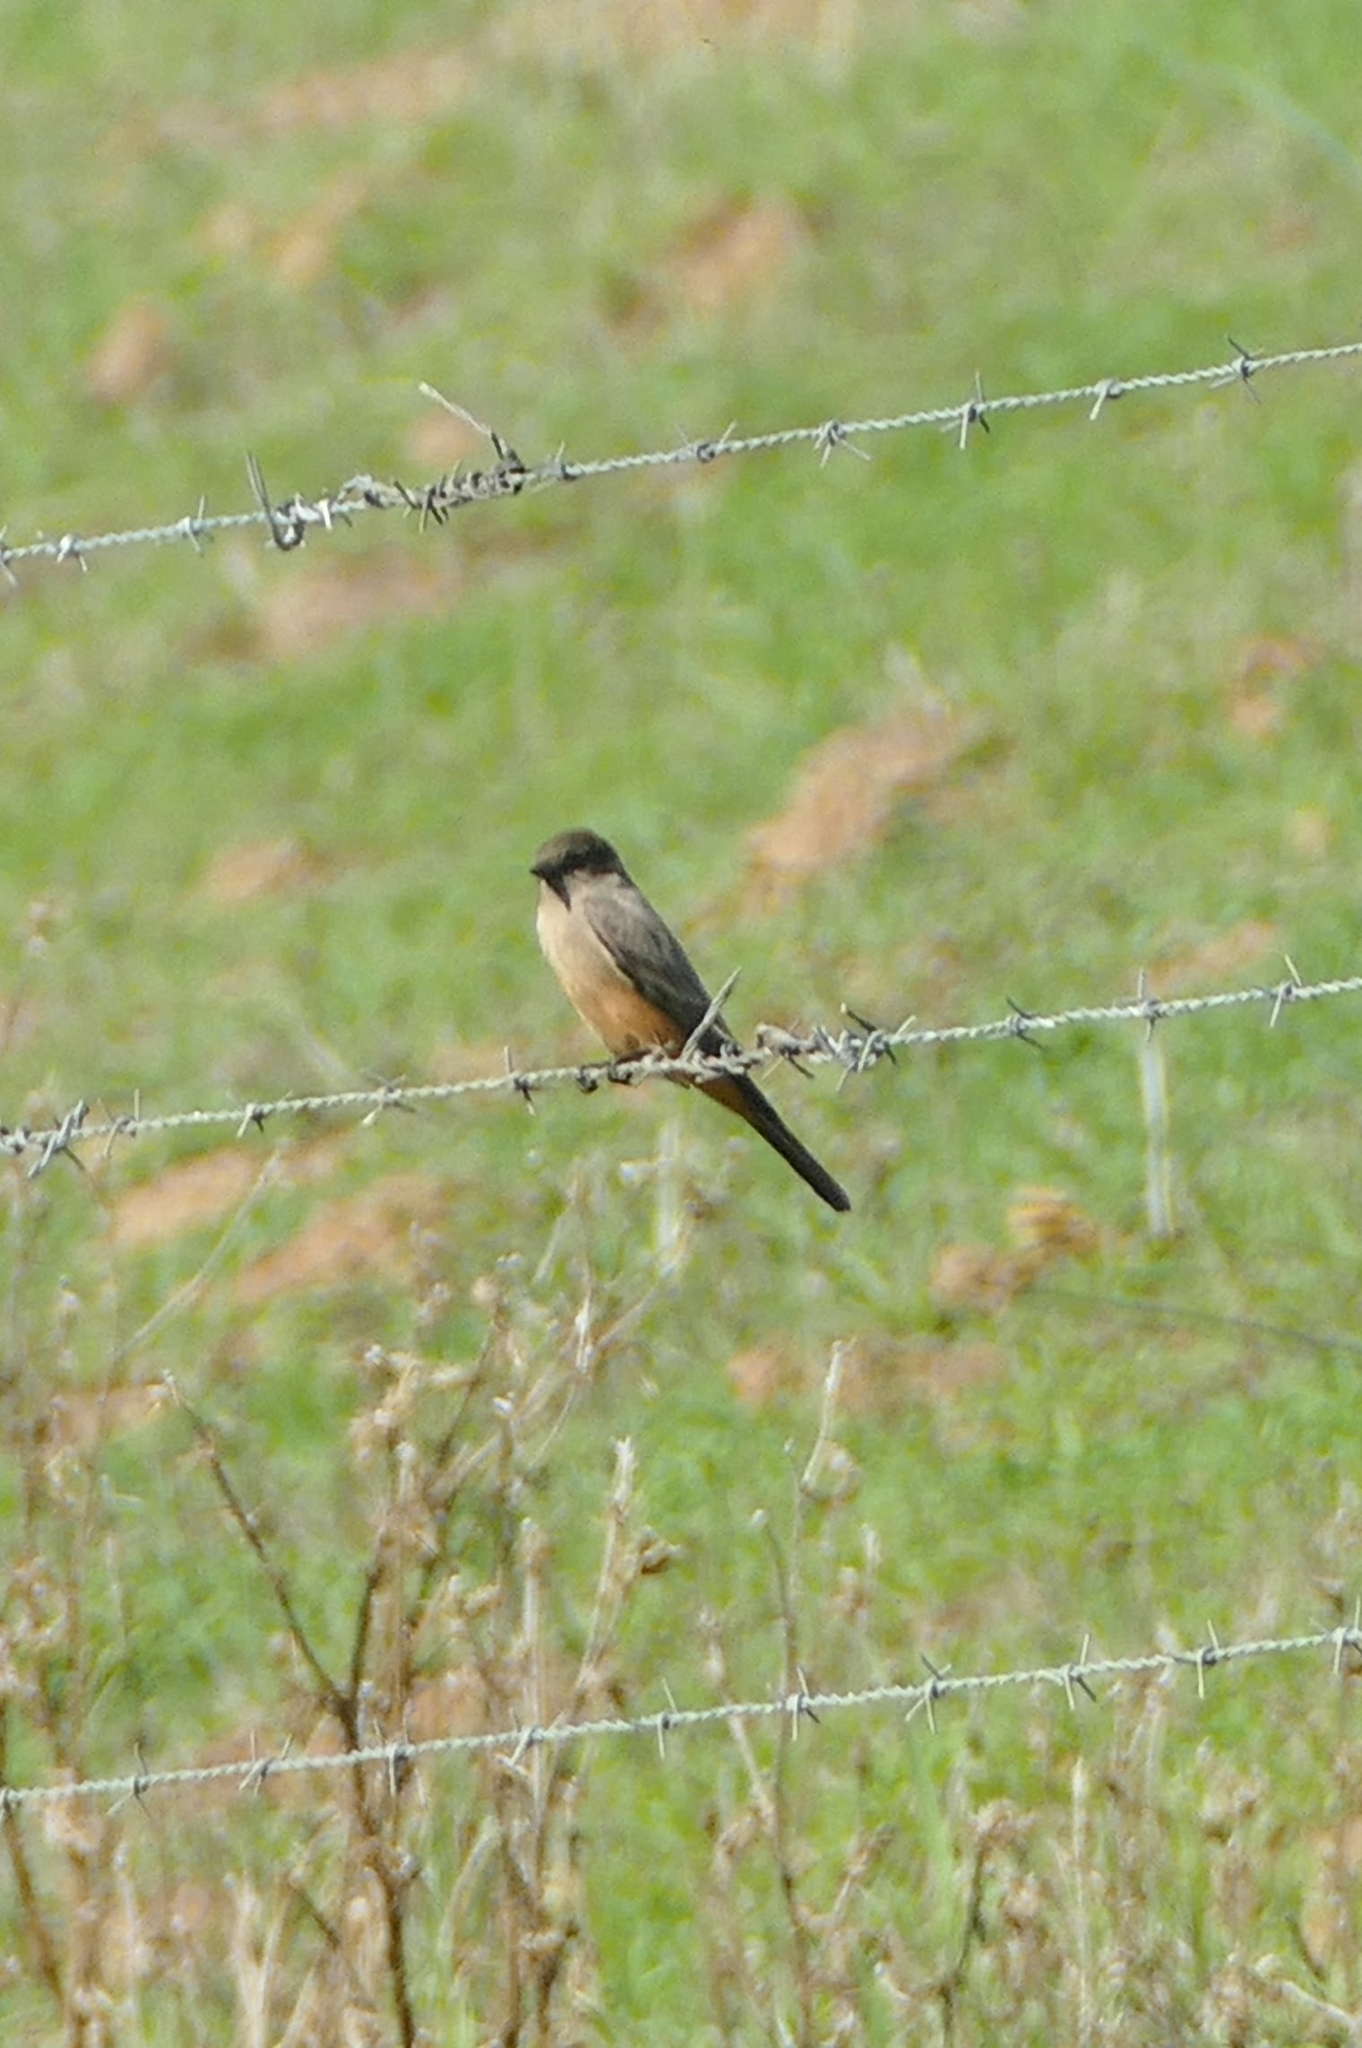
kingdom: Animalia
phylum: Chordata
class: Aves
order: Passeriformes
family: Tyrannidae
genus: Sayornis
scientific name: Sayornis saya
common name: Say's phoebe
